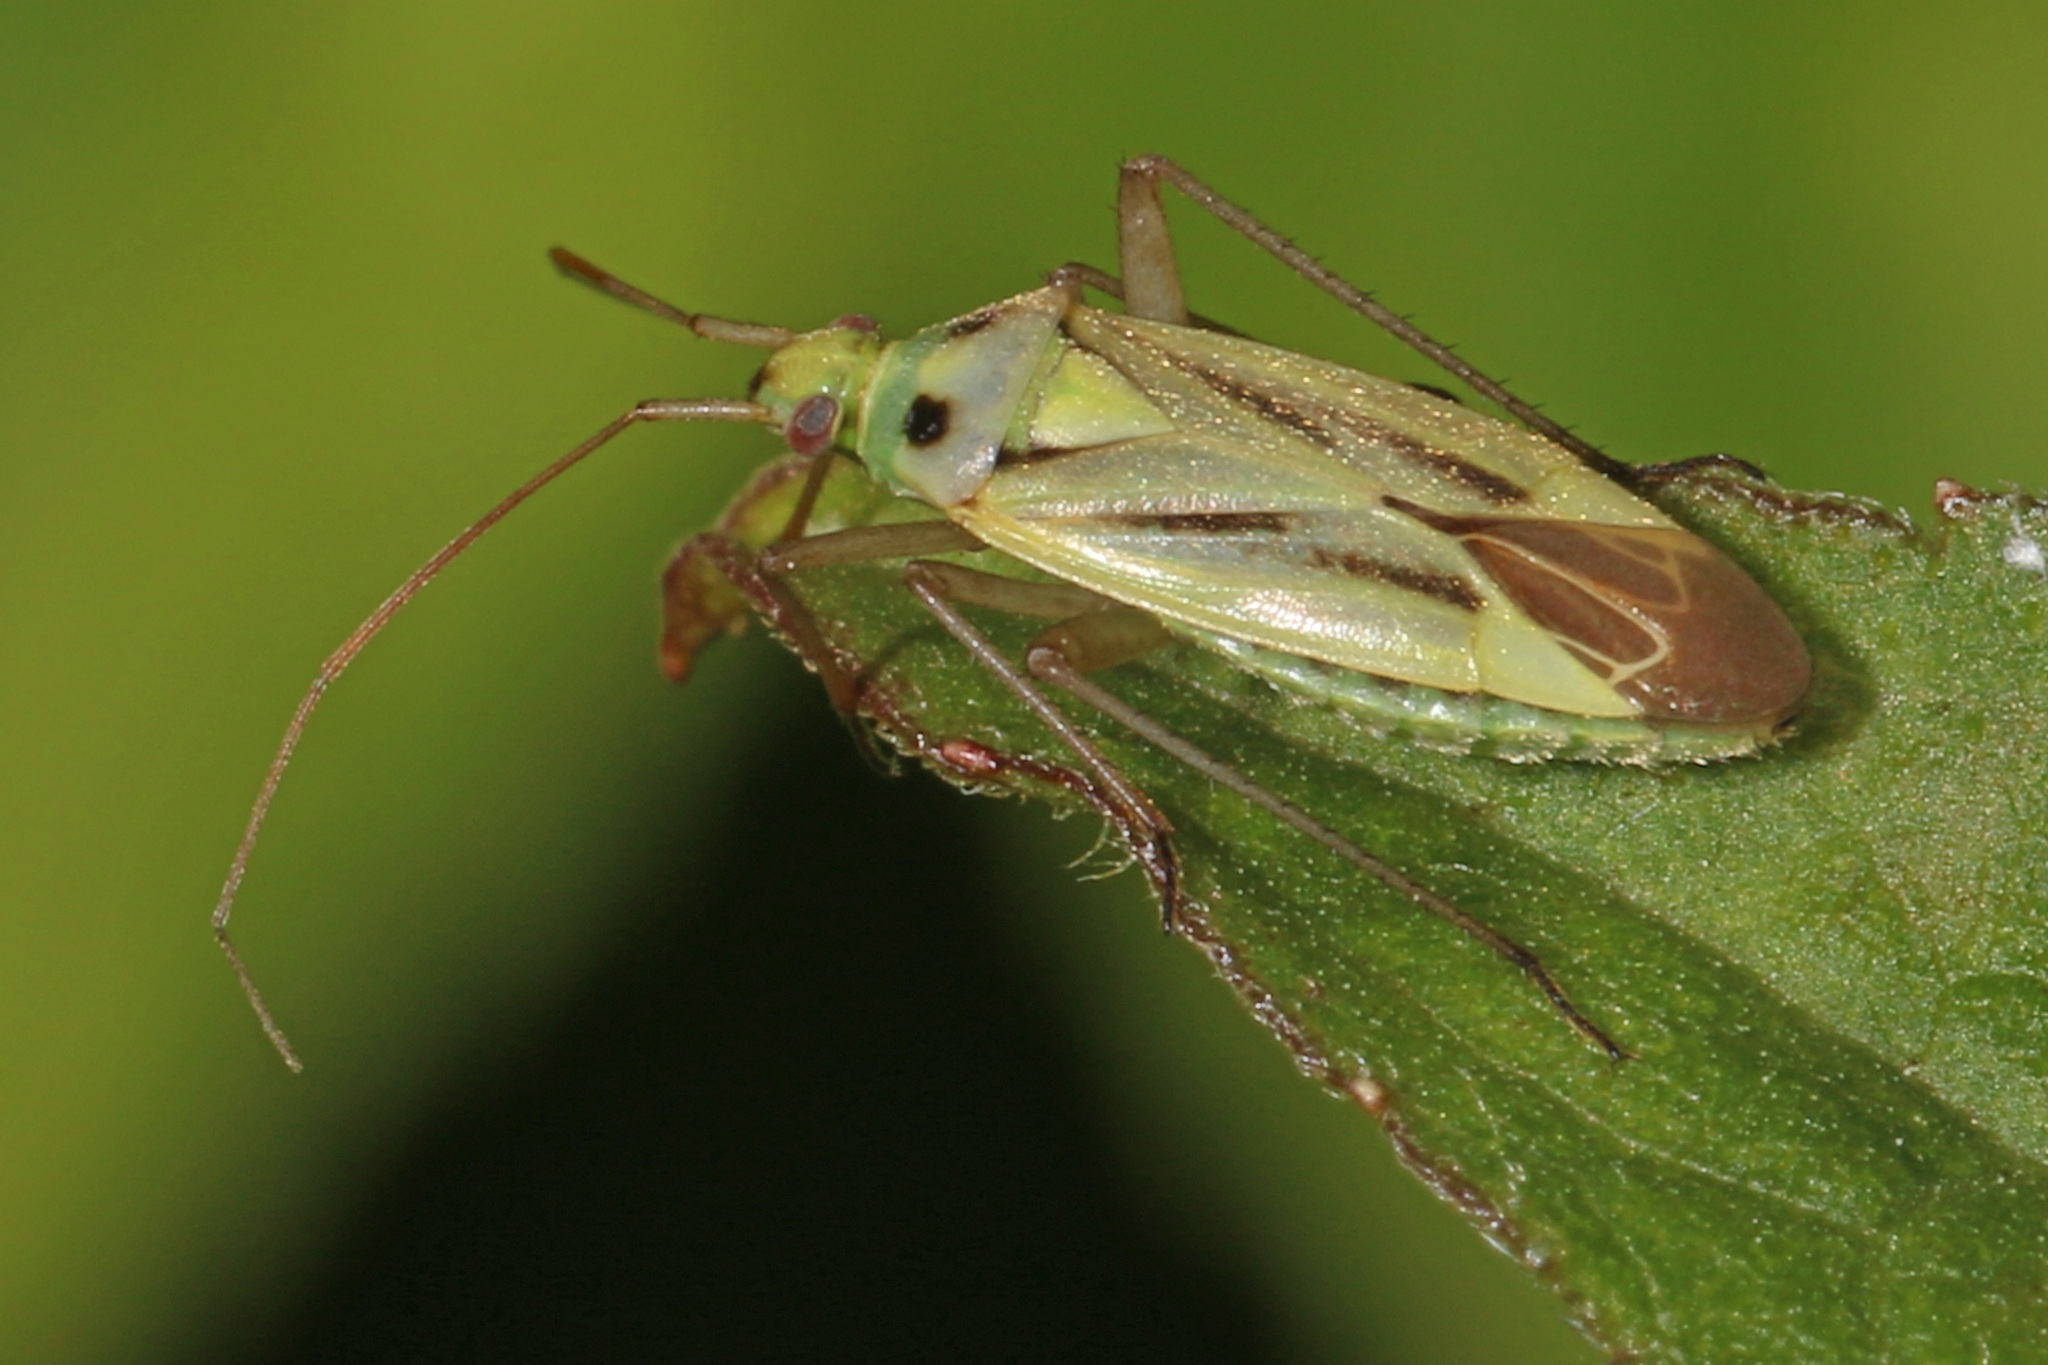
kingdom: Animalia
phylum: Arthropoda
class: Insecta
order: Hemiptera
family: Miridae
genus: Stenotus
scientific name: Stenotus binotatus
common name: Plant bug
